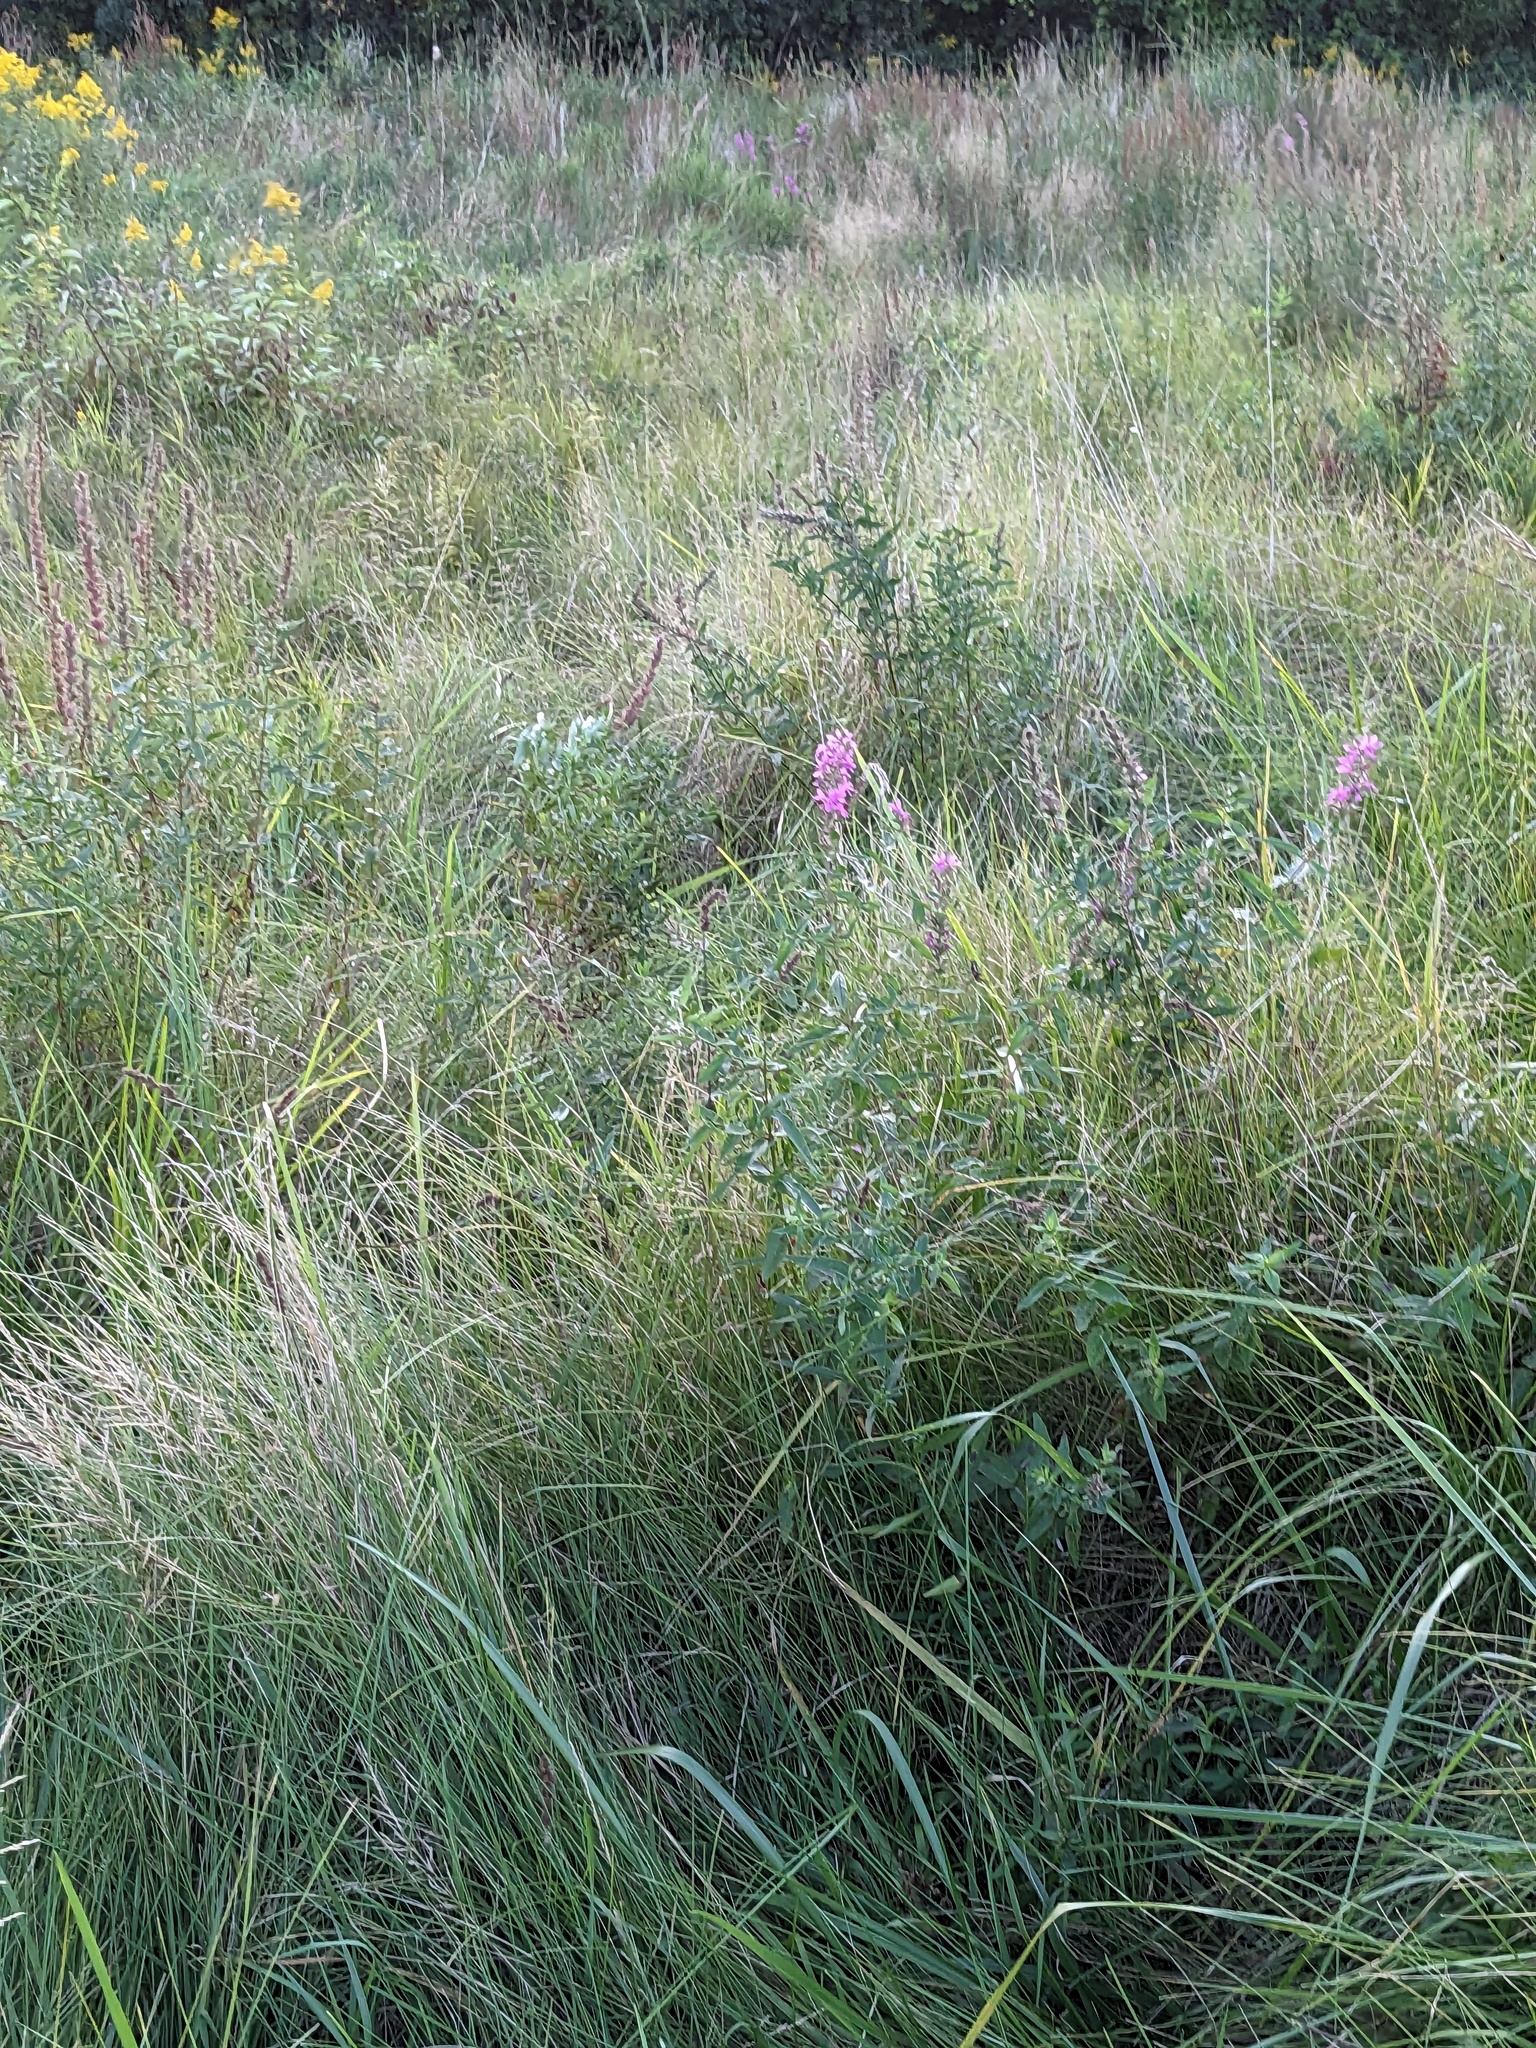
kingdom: Plantae
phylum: Tracheophyta
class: Magnoliopsida
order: Myrtales
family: Lythraceae
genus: Lythrum
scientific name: Lythrum salicaria
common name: Purple loosestrife
